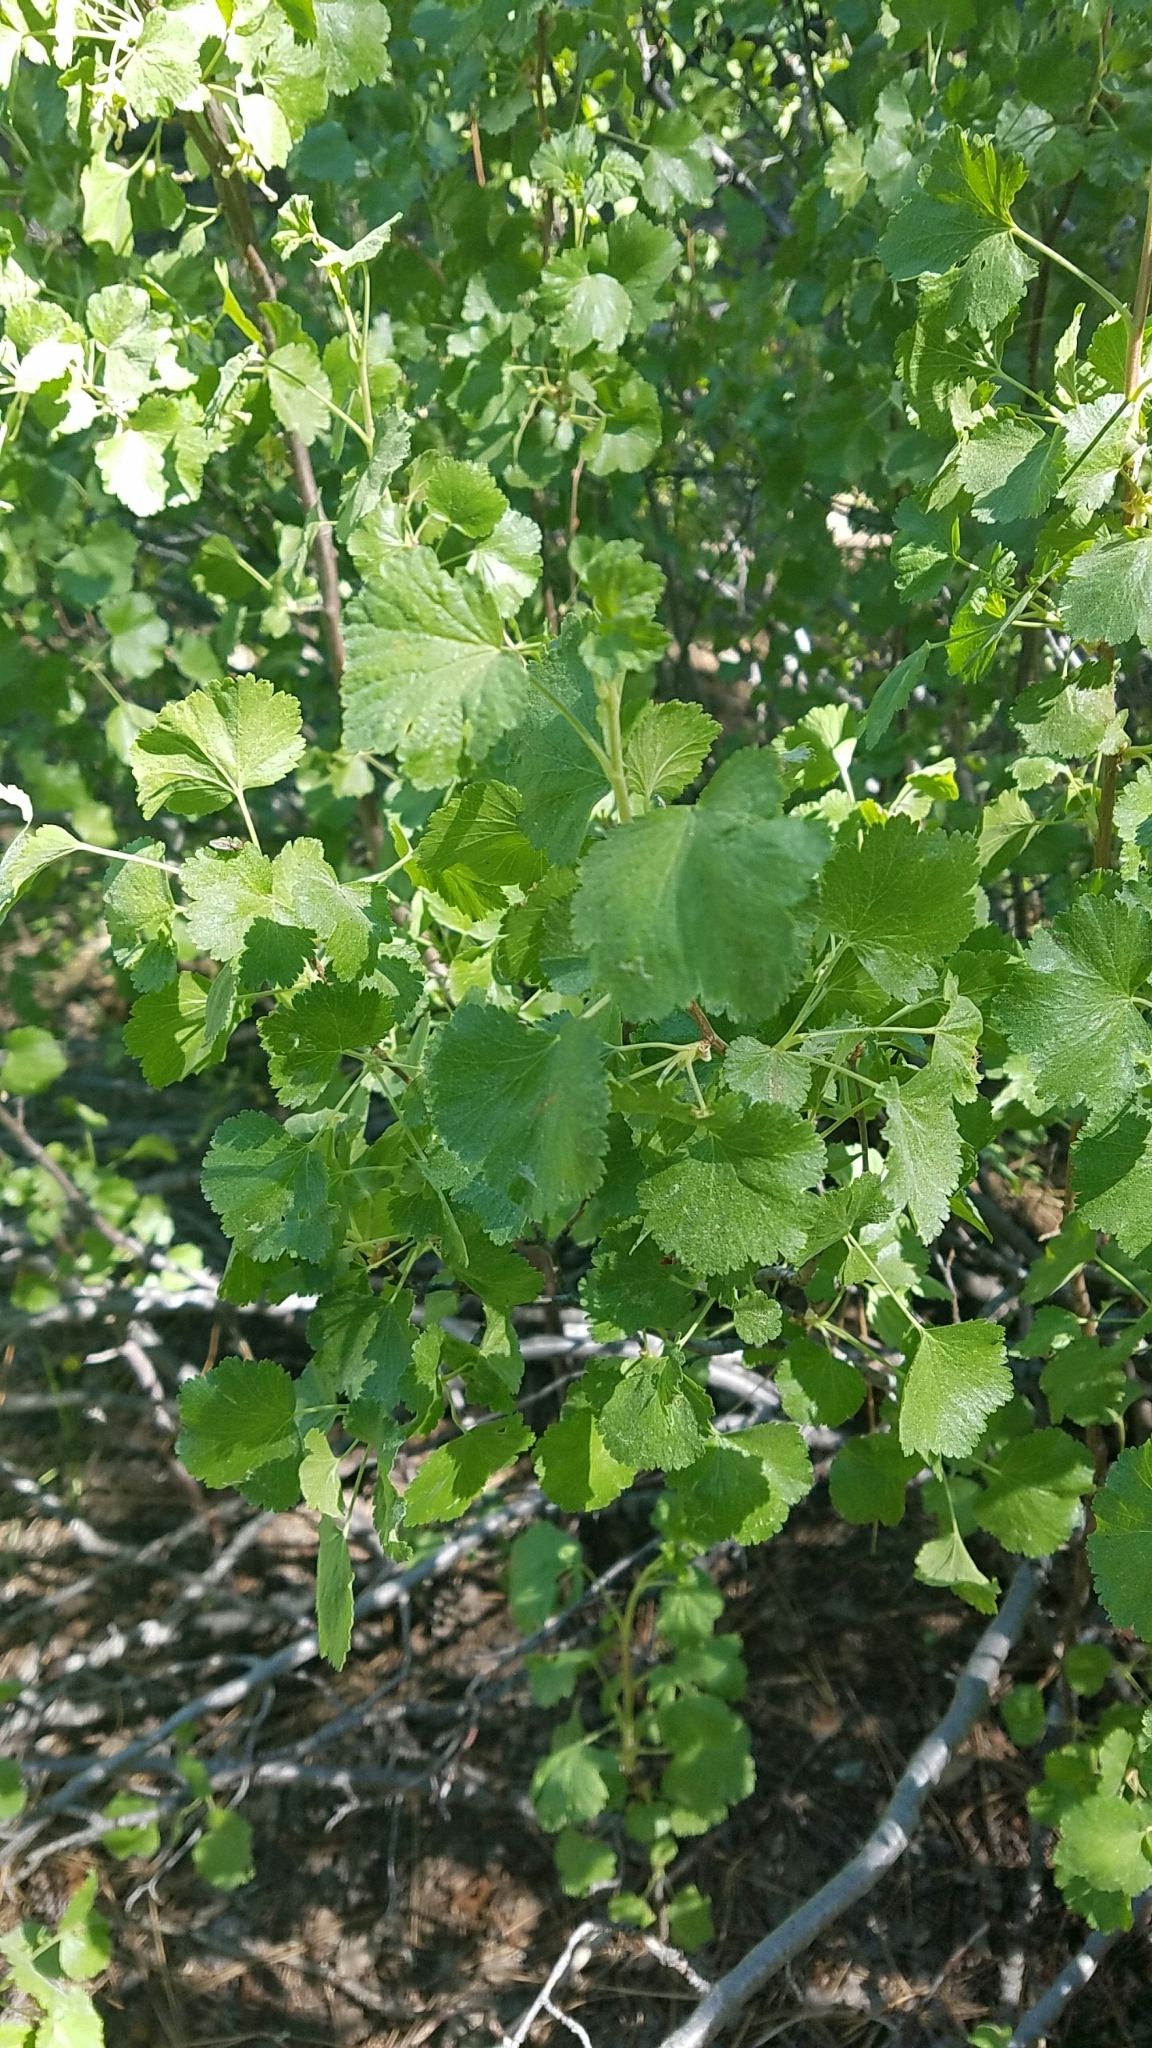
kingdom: Plantae
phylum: Tracheophyta
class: Magnoliopsida
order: Saxifragales
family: Grossulariaceae
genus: Ribes
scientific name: Ribes cereum
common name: Wax currant
